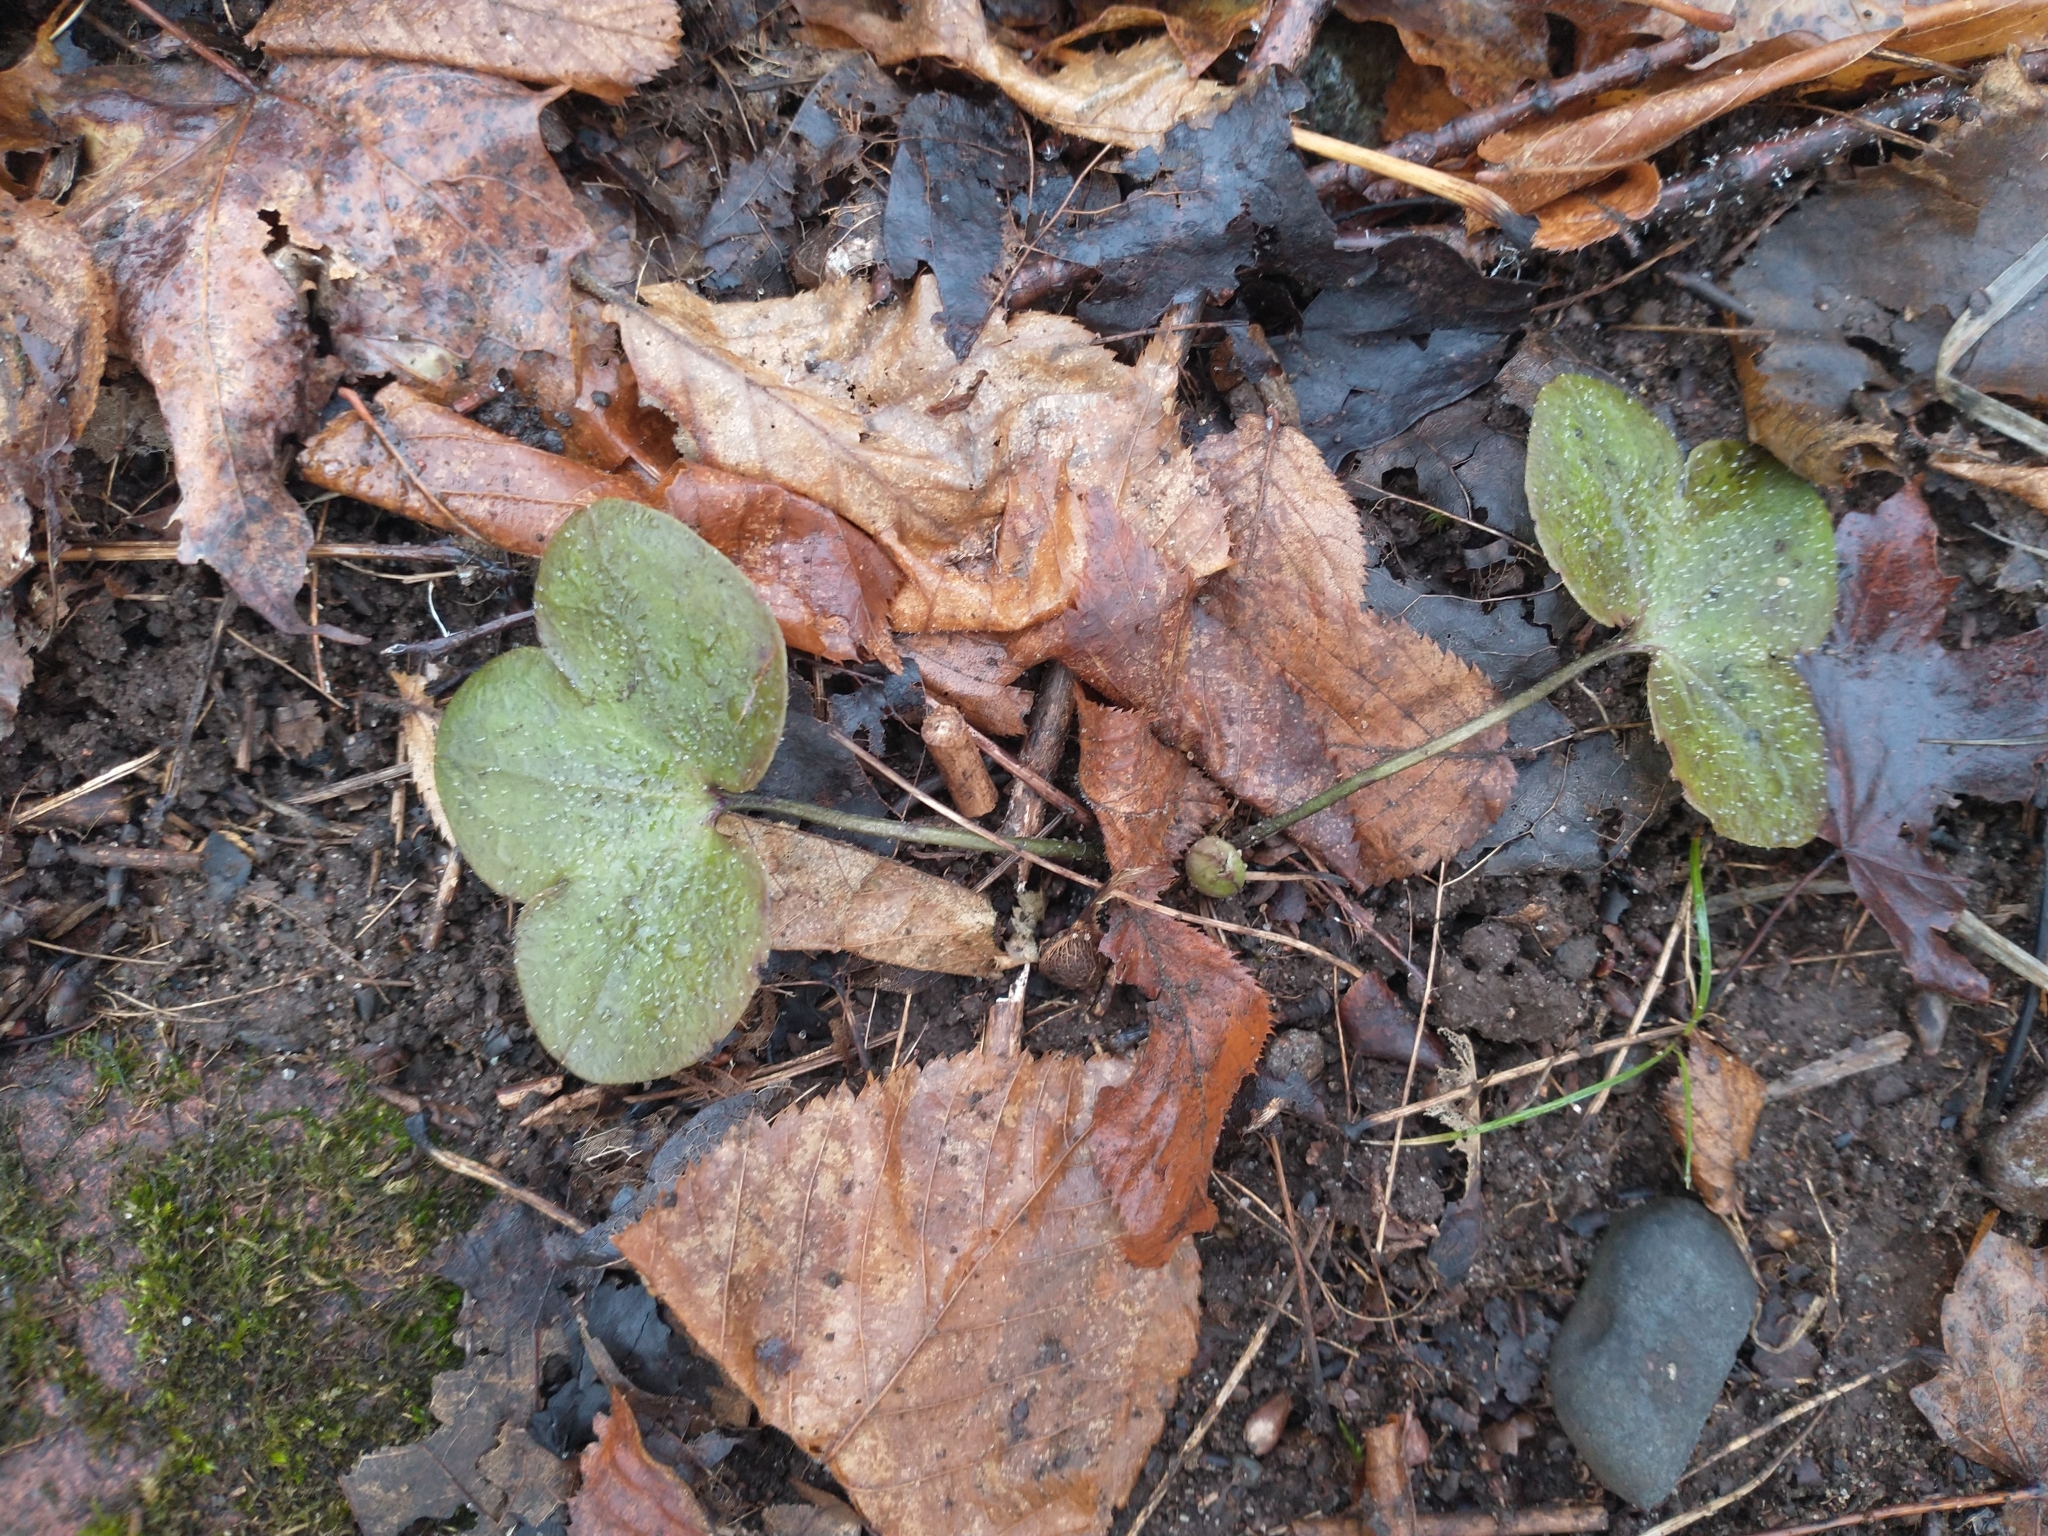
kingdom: Plantae
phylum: Tracheophyta
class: Magnoliopsida
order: Ranunculales
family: Ranunculaceae
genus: Hepatica
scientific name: Hepatica americana
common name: American hepatica
